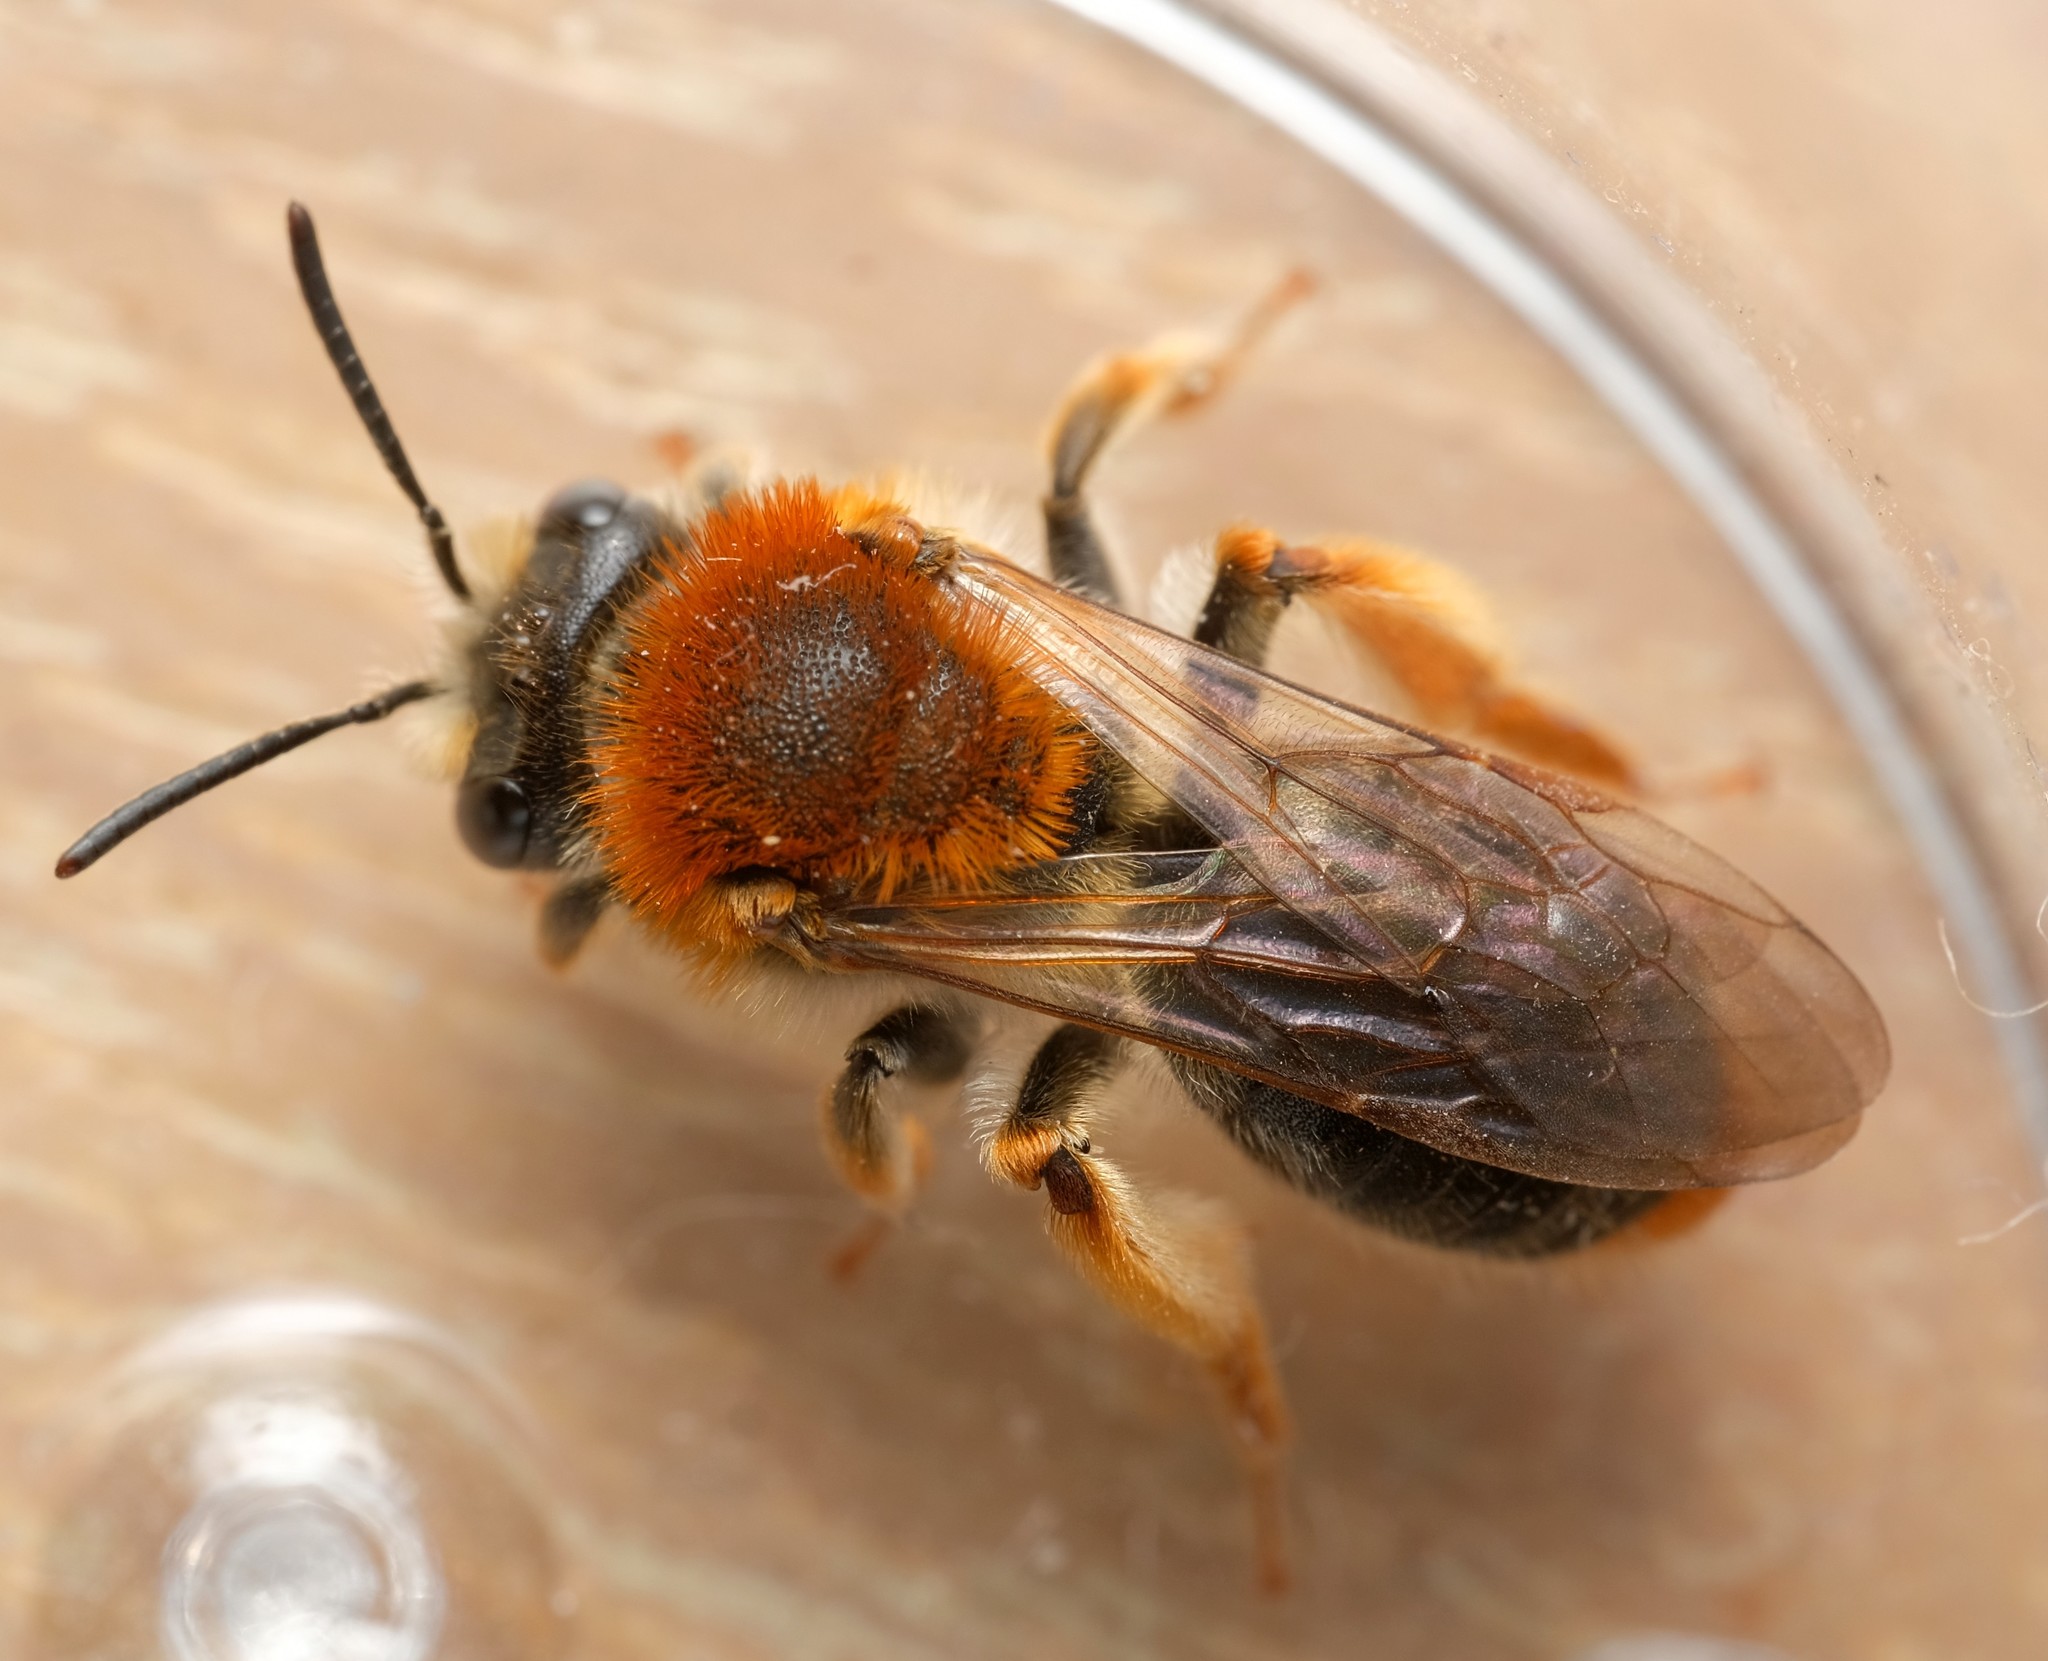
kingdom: Animalia
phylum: Arthropoda
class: Insecta
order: Hymenoptera
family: Andrenidae
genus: Andrena
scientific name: Andrena haemorrhoa
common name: Early mining bee
